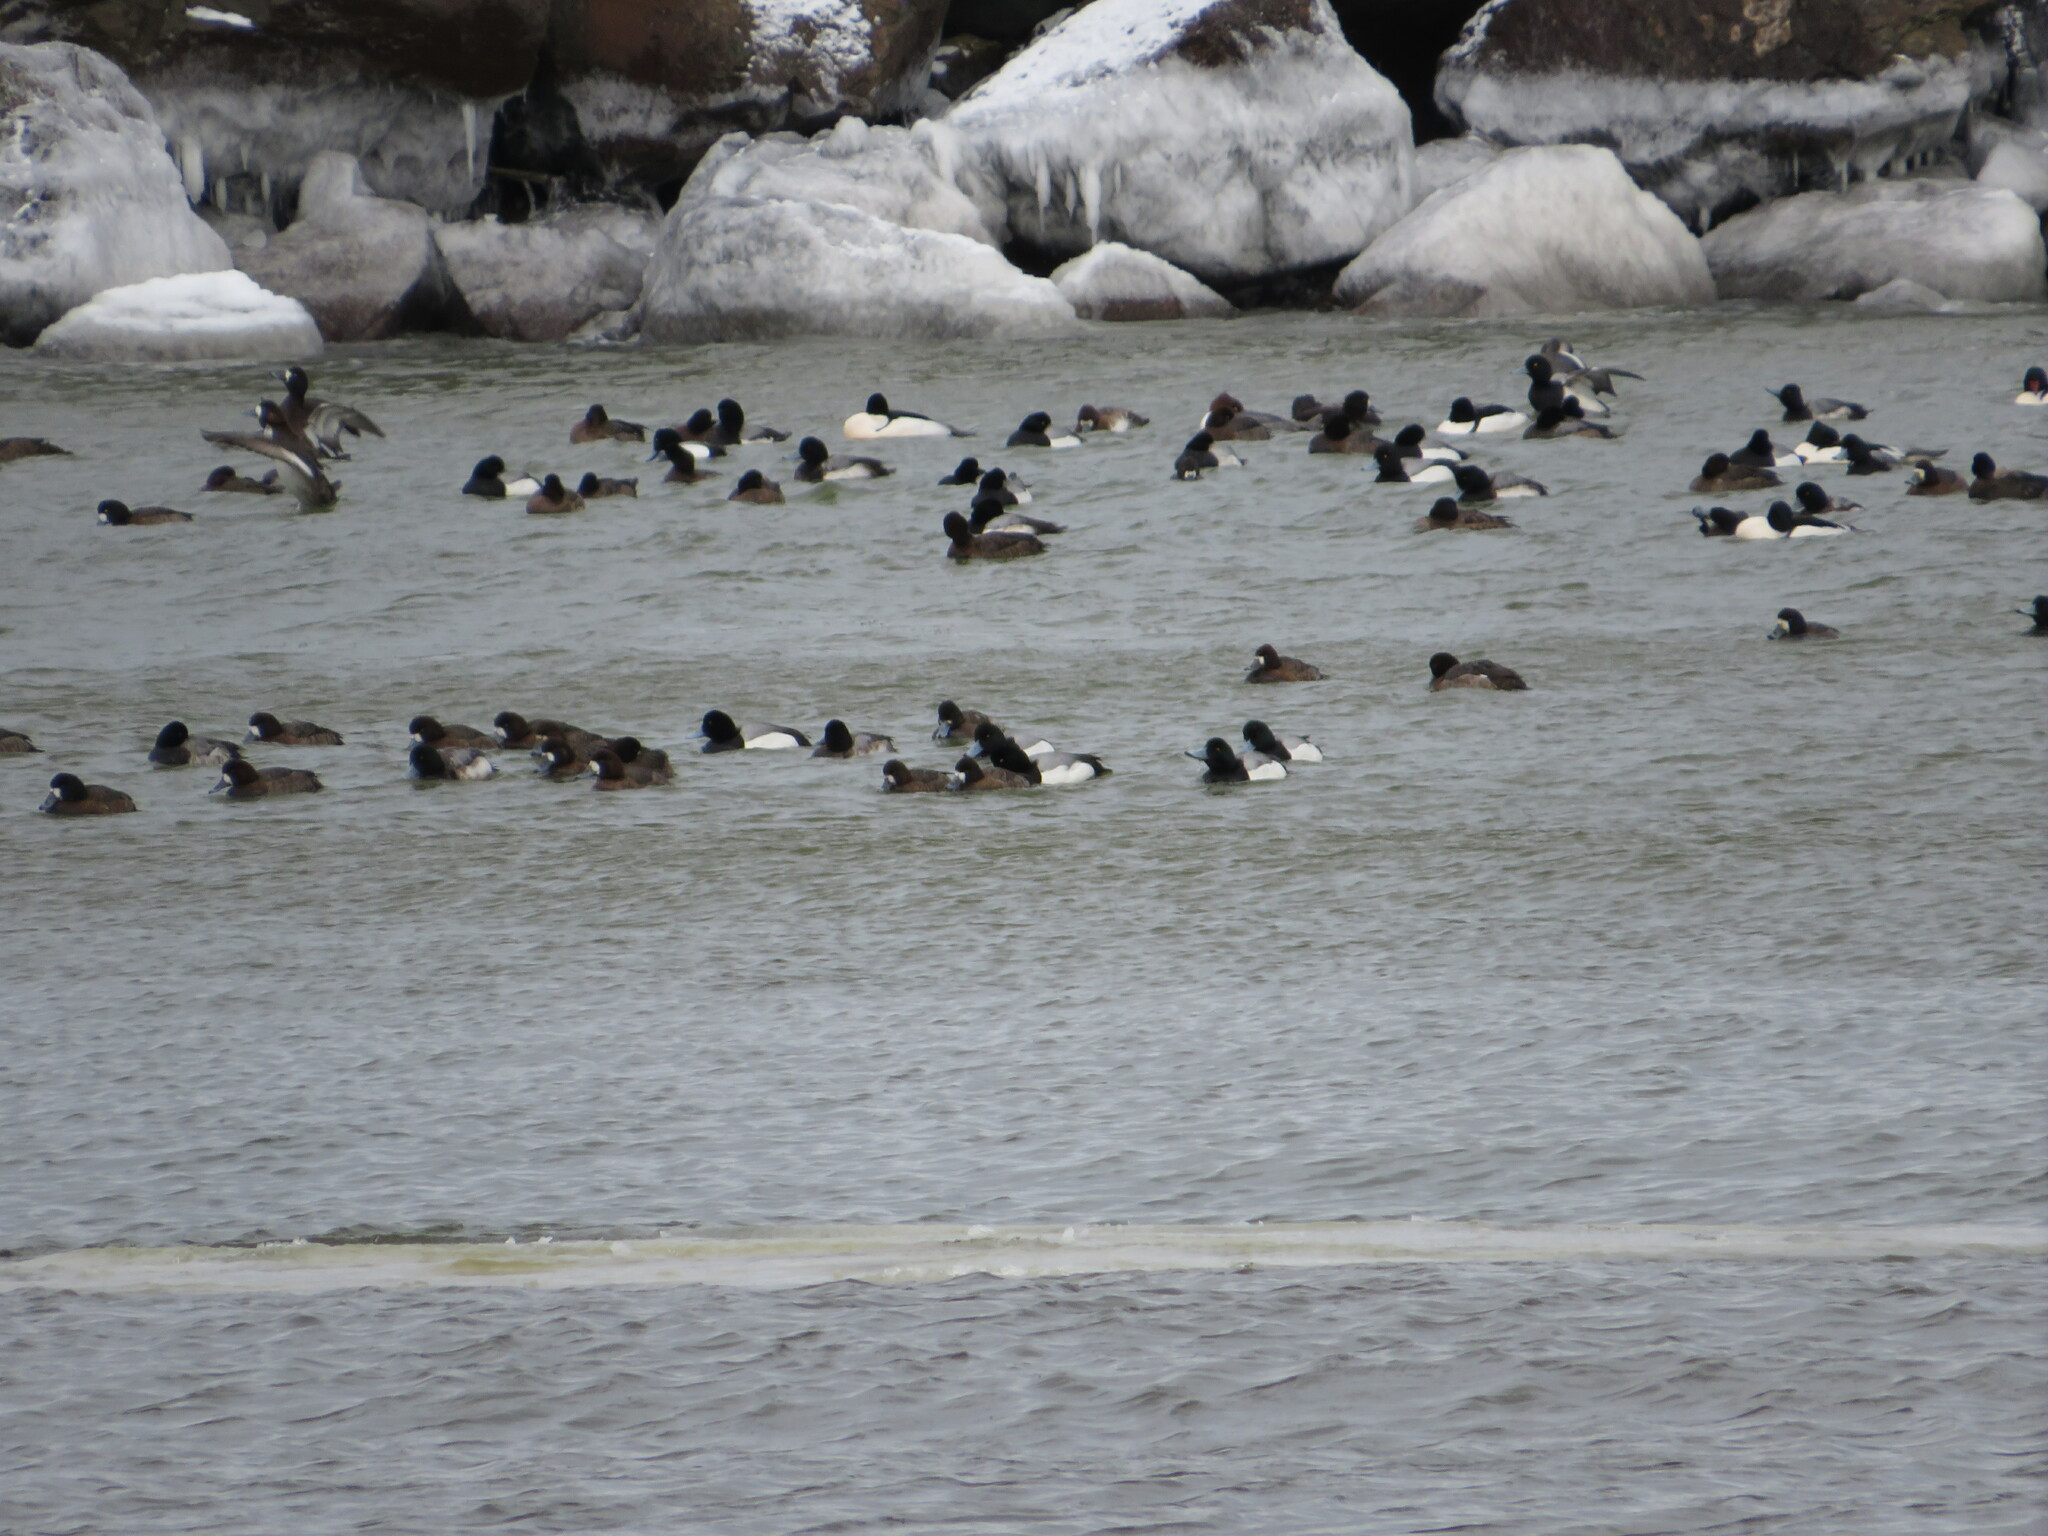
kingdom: Animalia
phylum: Chordata
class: Aves
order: Anseriformes
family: Anatidae
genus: Mergus
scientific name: Mergus merganser
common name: Common merganser
